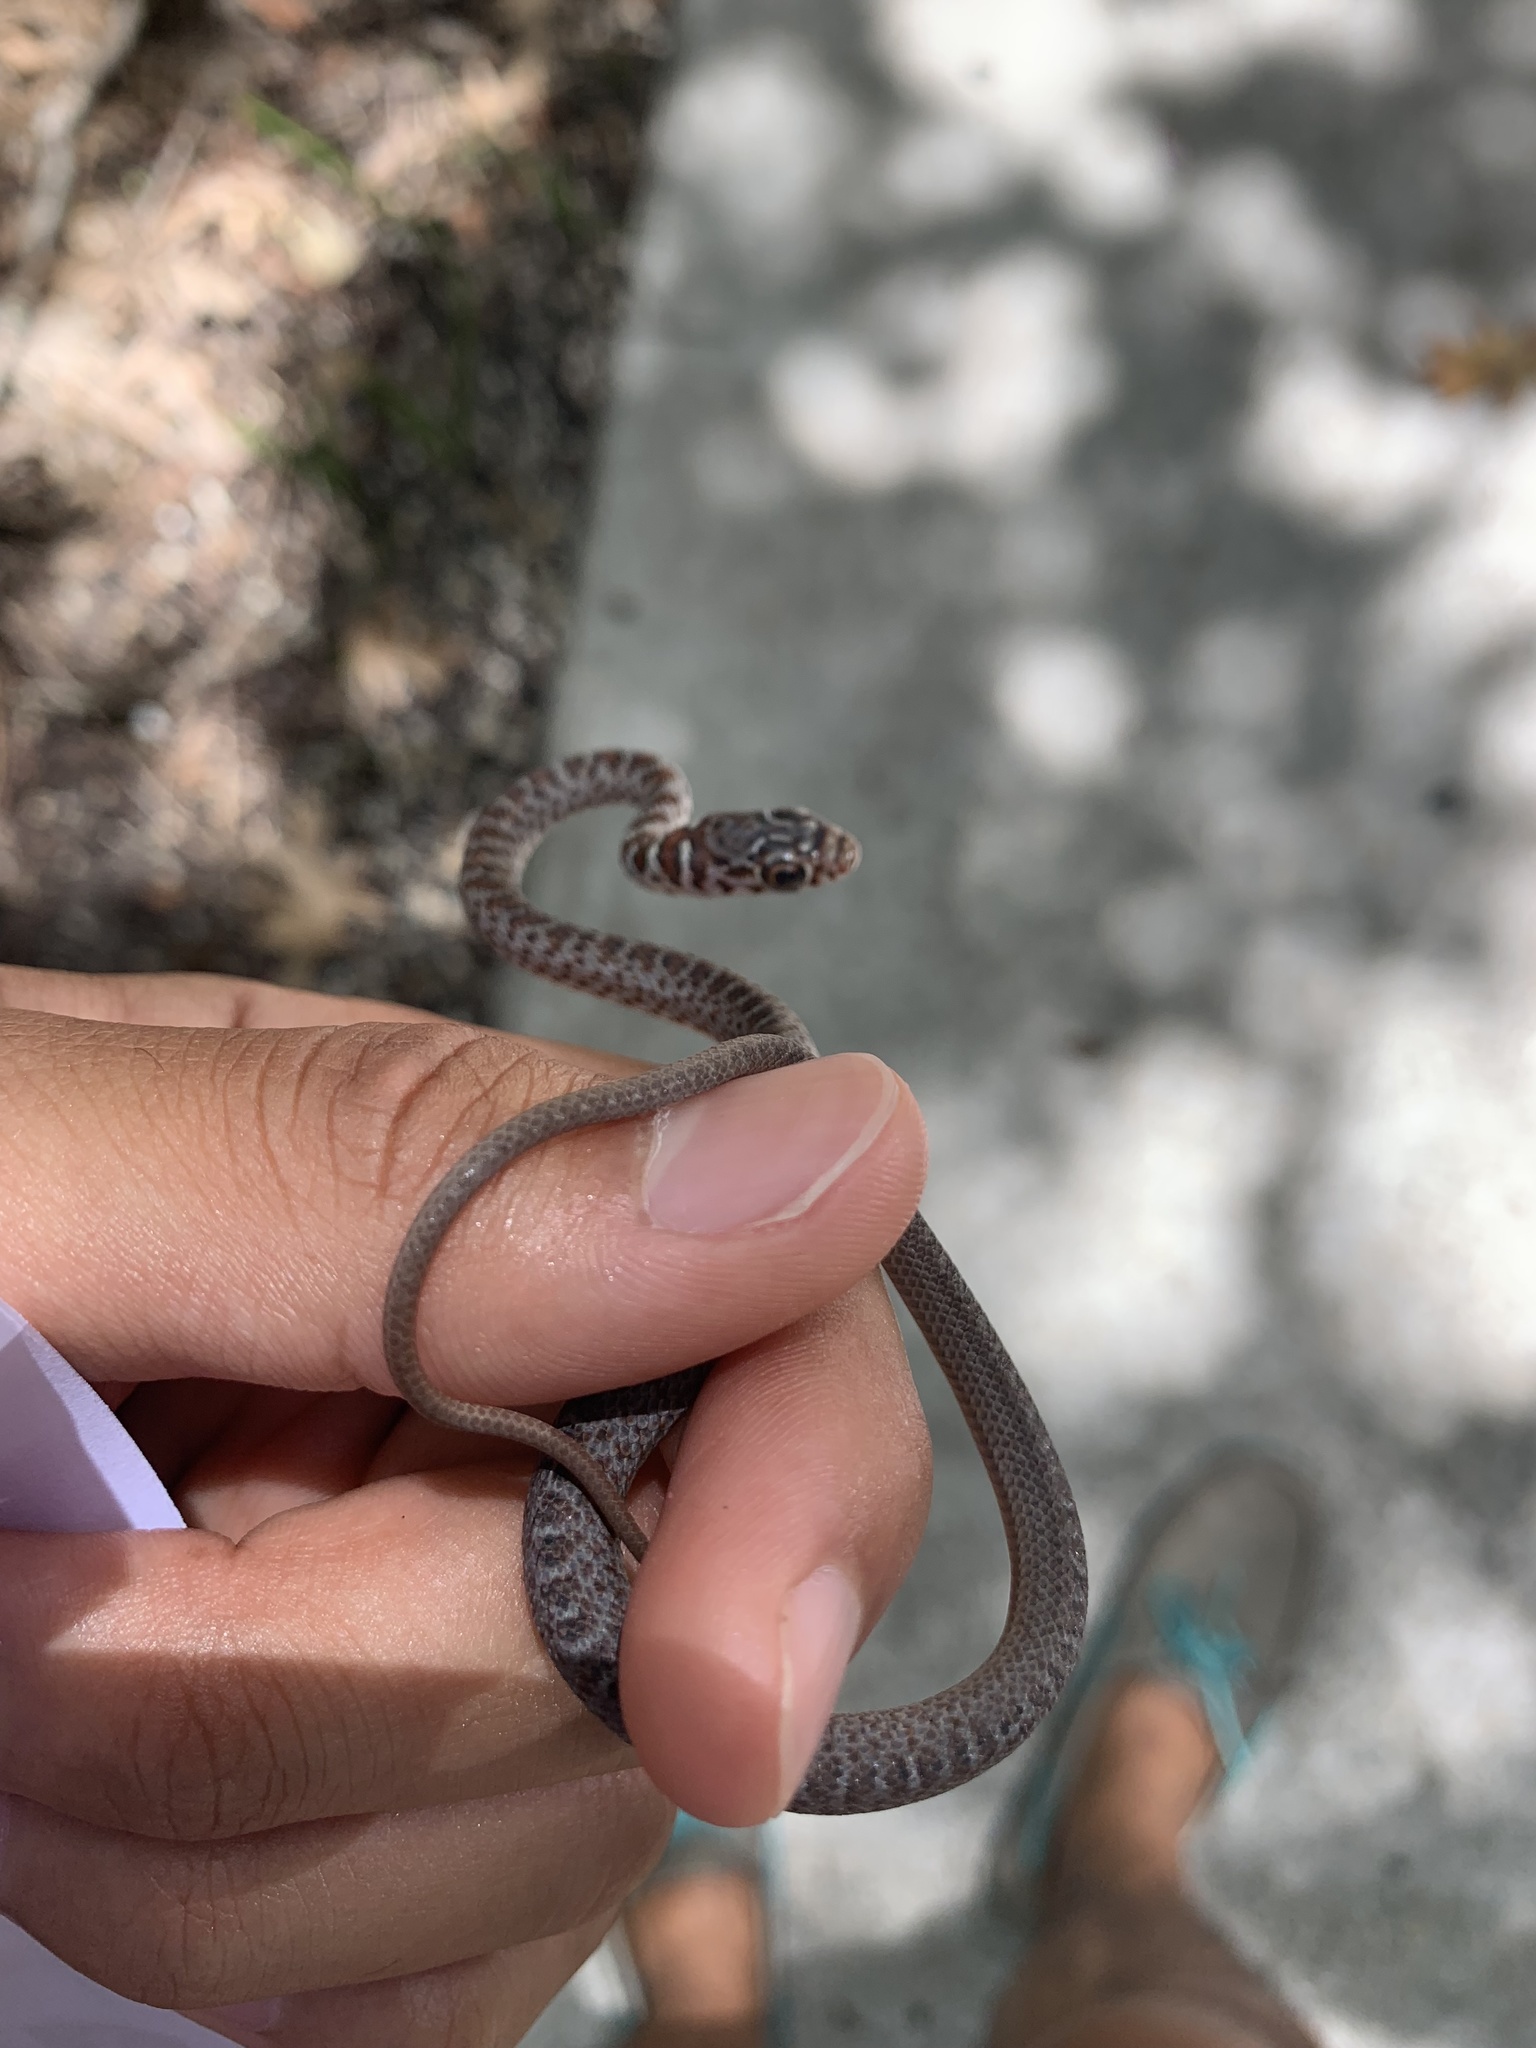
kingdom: Animalia
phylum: Chordata
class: Squamata
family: Colubridae
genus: Coluber
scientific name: Coluber constrictor
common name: Eastern racer
